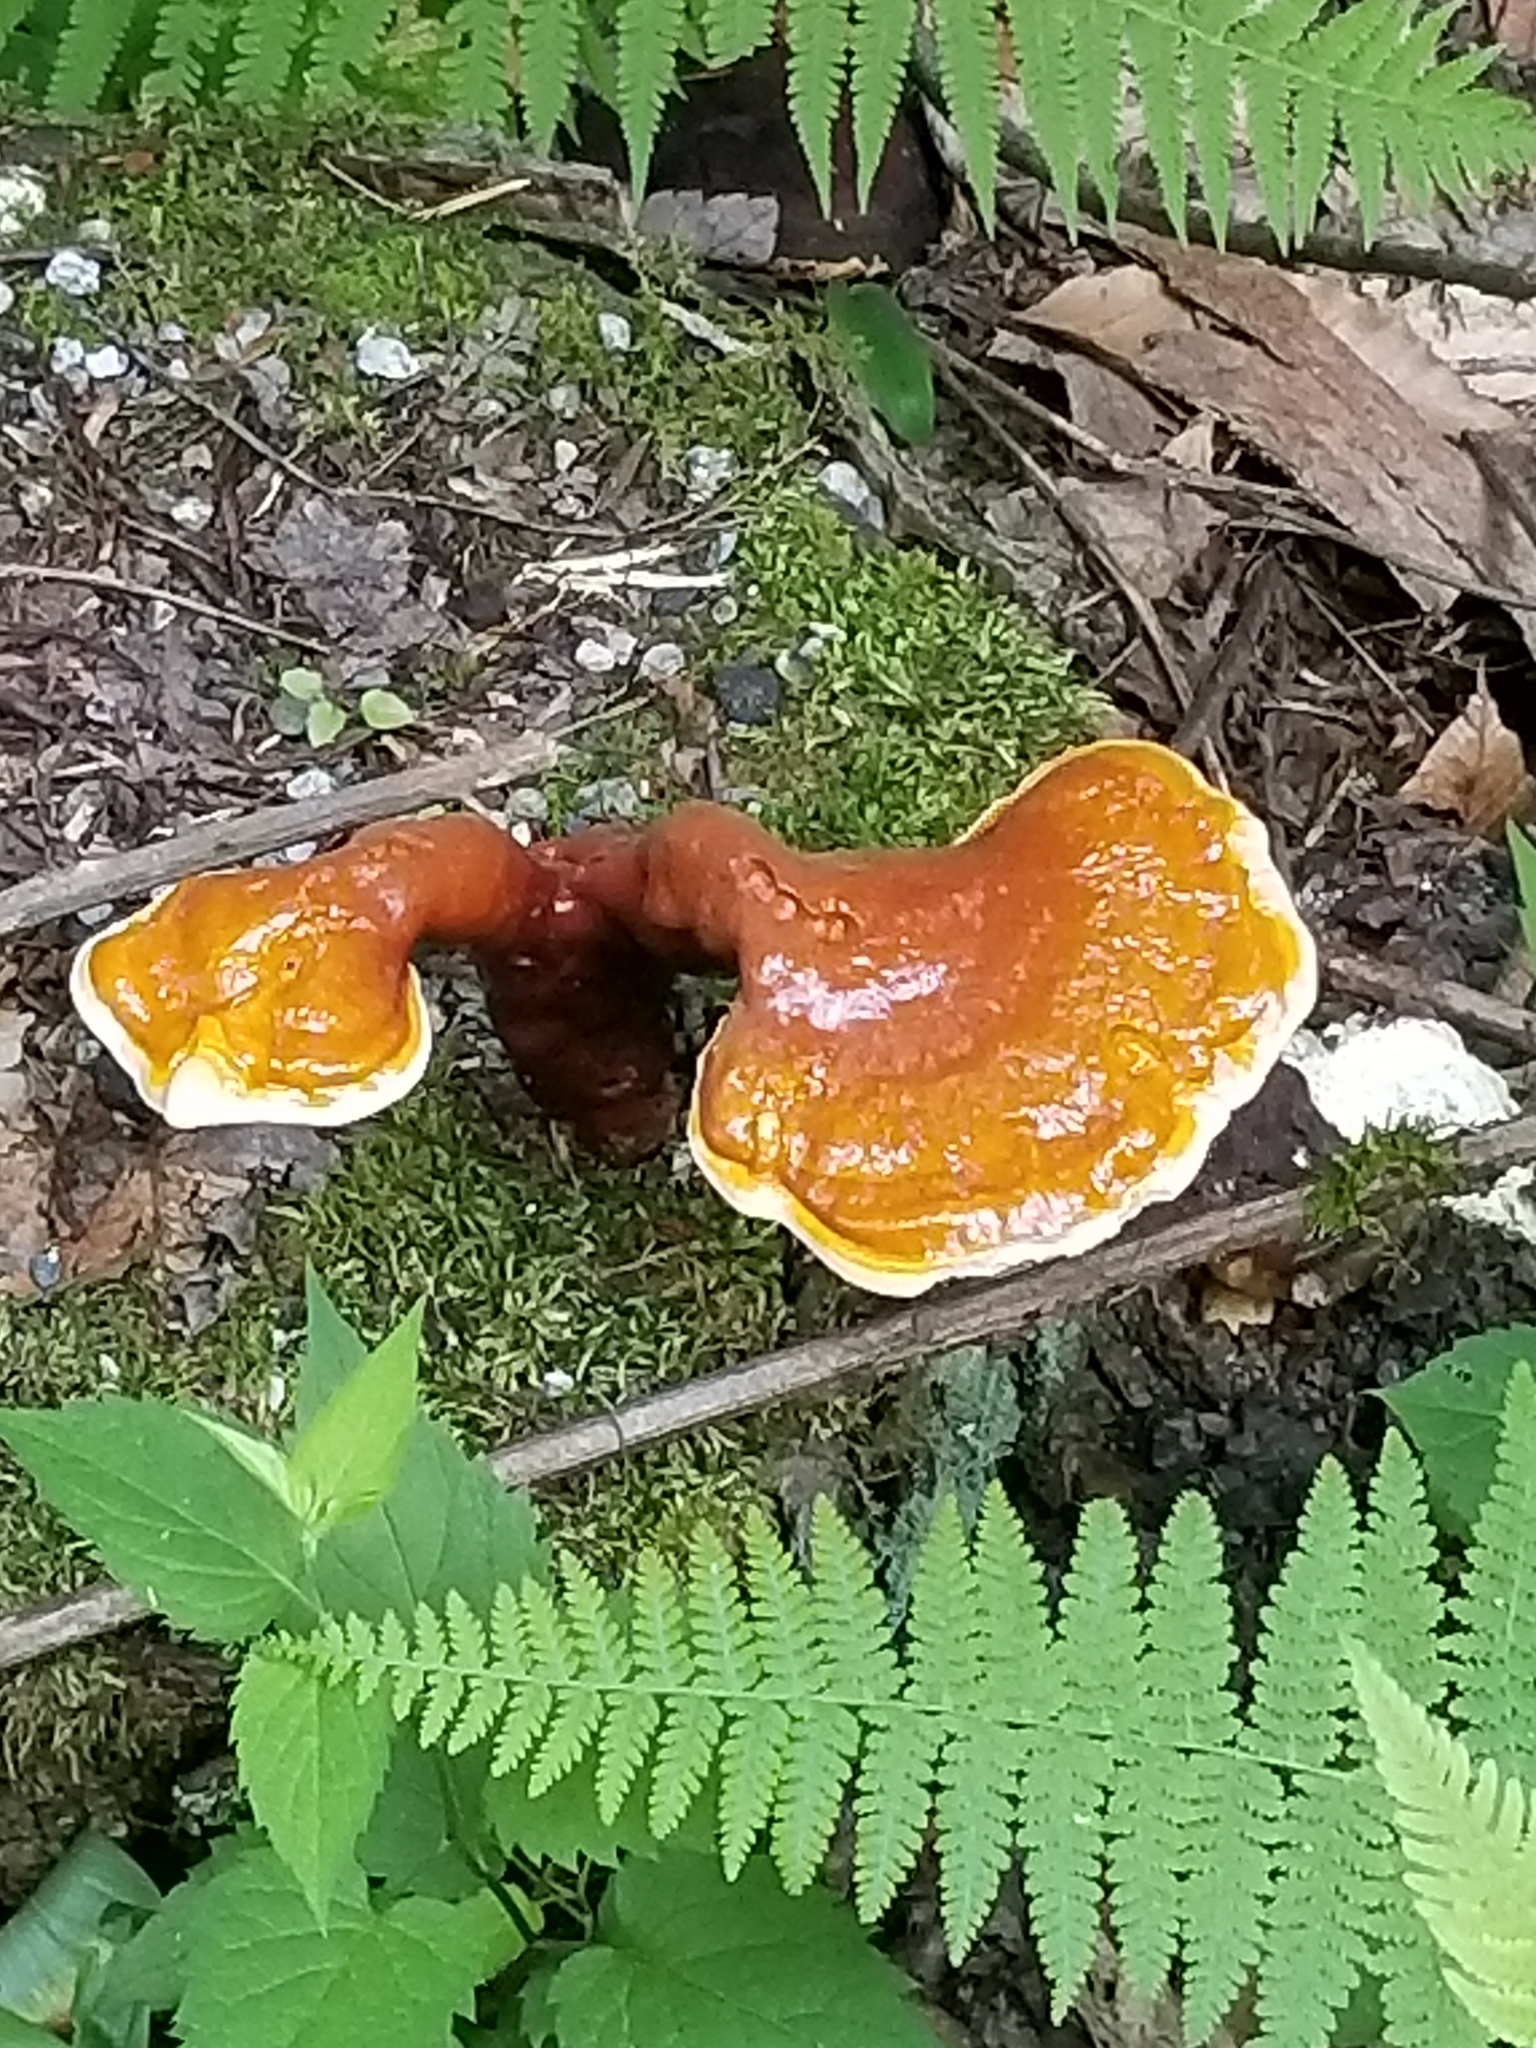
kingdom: Fungi
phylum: Basidiomycota
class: Agaricomycetes
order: Polyporales
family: Polyporaceae
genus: Ganoderma
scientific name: Ganoderma tsugae
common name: Hemlock varnish shelf
